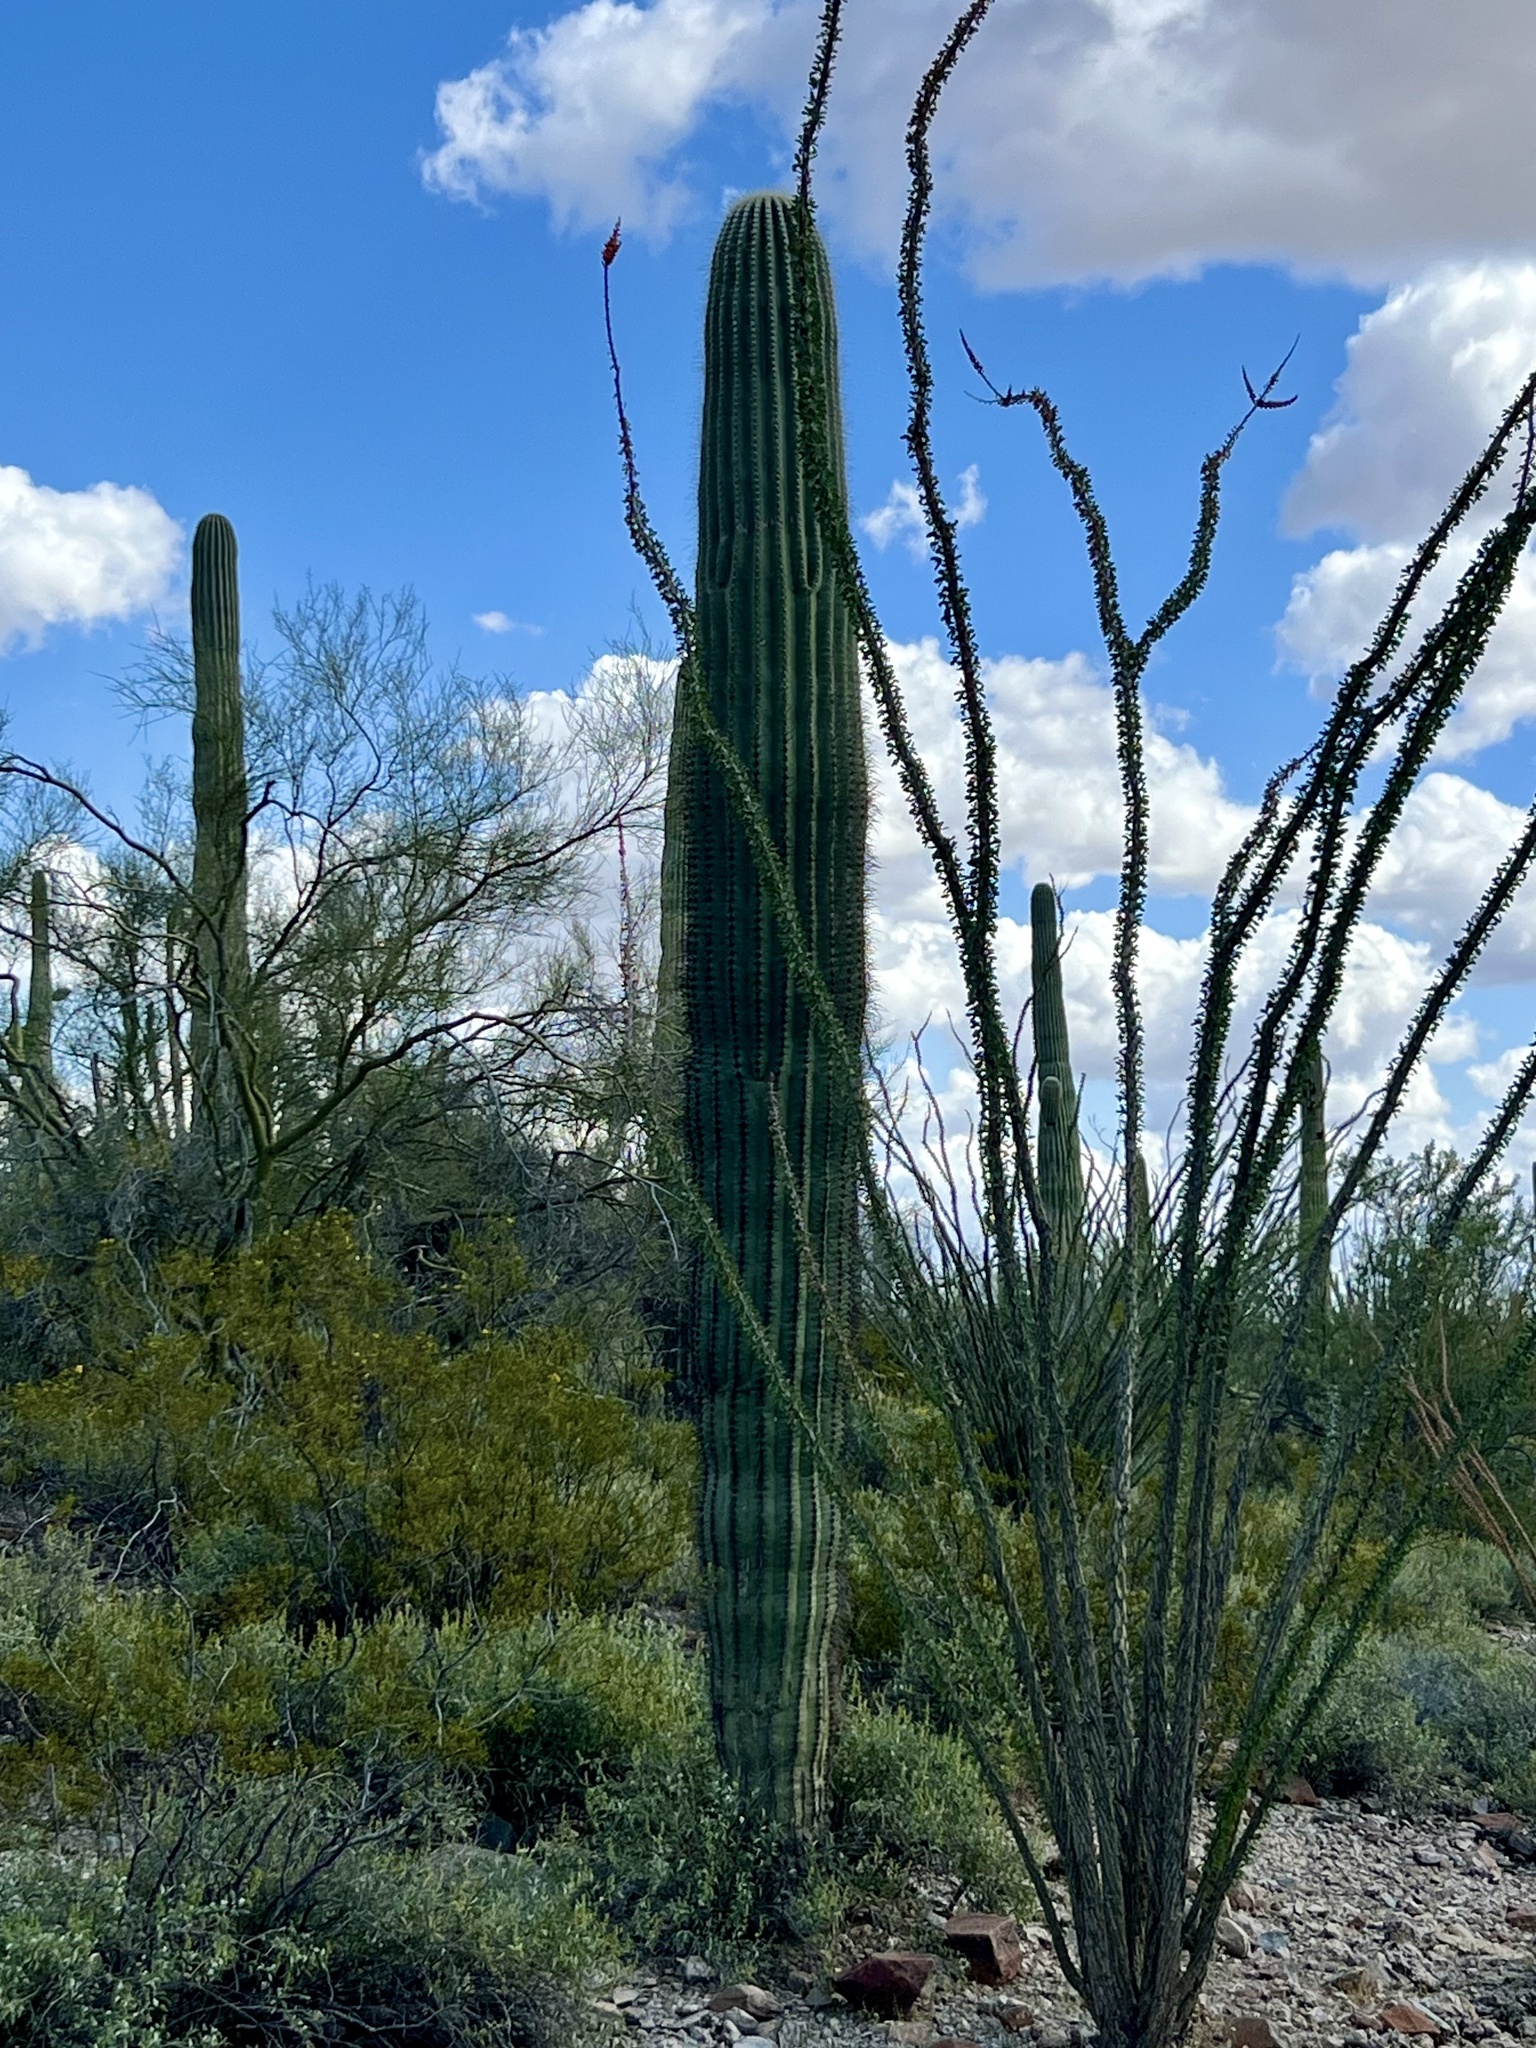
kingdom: Plantae
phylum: Tracheophyta
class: Magnoliopsida
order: Caryophyllales
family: Cactaceae
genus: Carnegiea
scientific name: Carnegiea gigantea
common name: Saguaro
